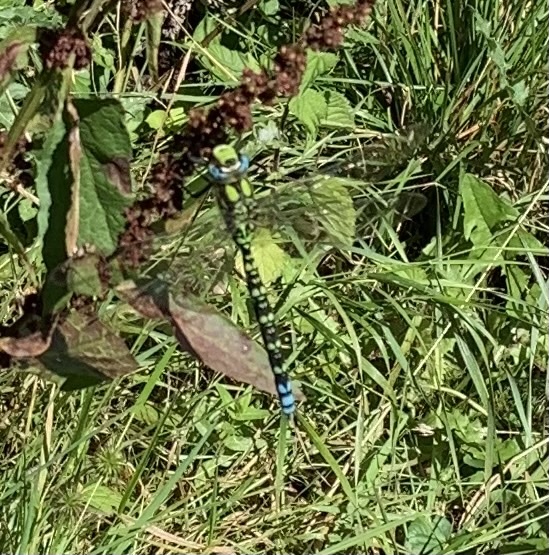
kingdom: Animalia
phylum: Arthropoda
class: Insecta
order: Odonata
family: Aeshnidae
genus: Aeshna
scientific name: Aeshna cyanea
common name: Southern hawker
